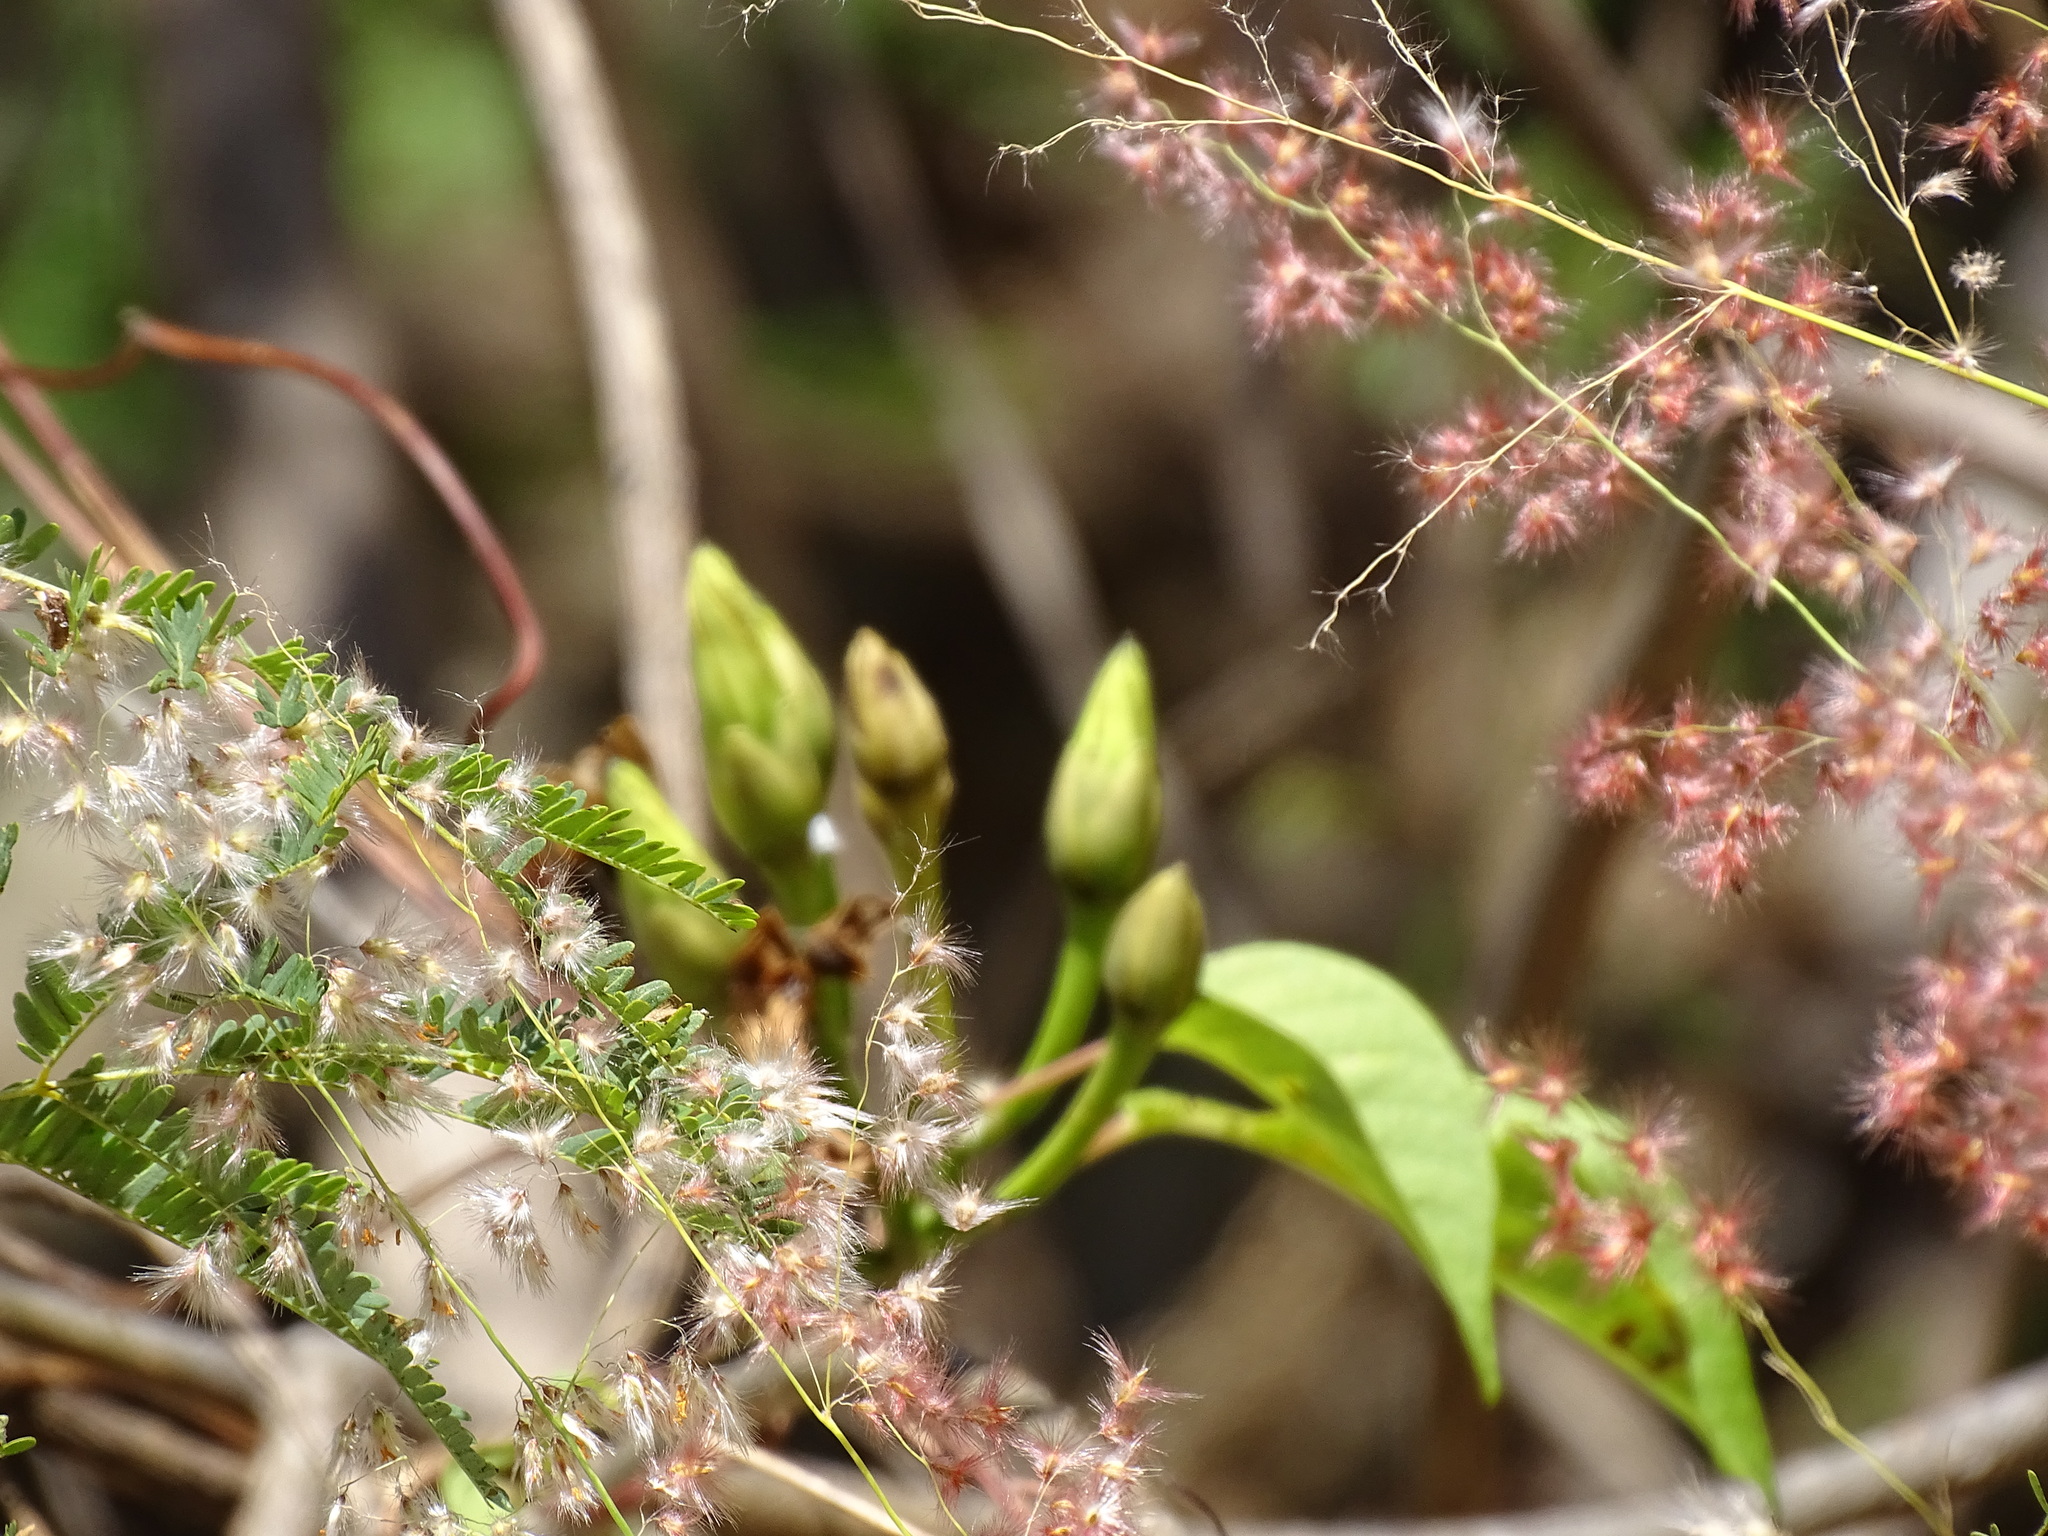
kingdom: Plantae
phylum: Tracheophyta
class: Magnoliopsida
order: Solanales
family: Convolvulaceae
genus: Ipomoea
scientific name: Ipomoea populina
